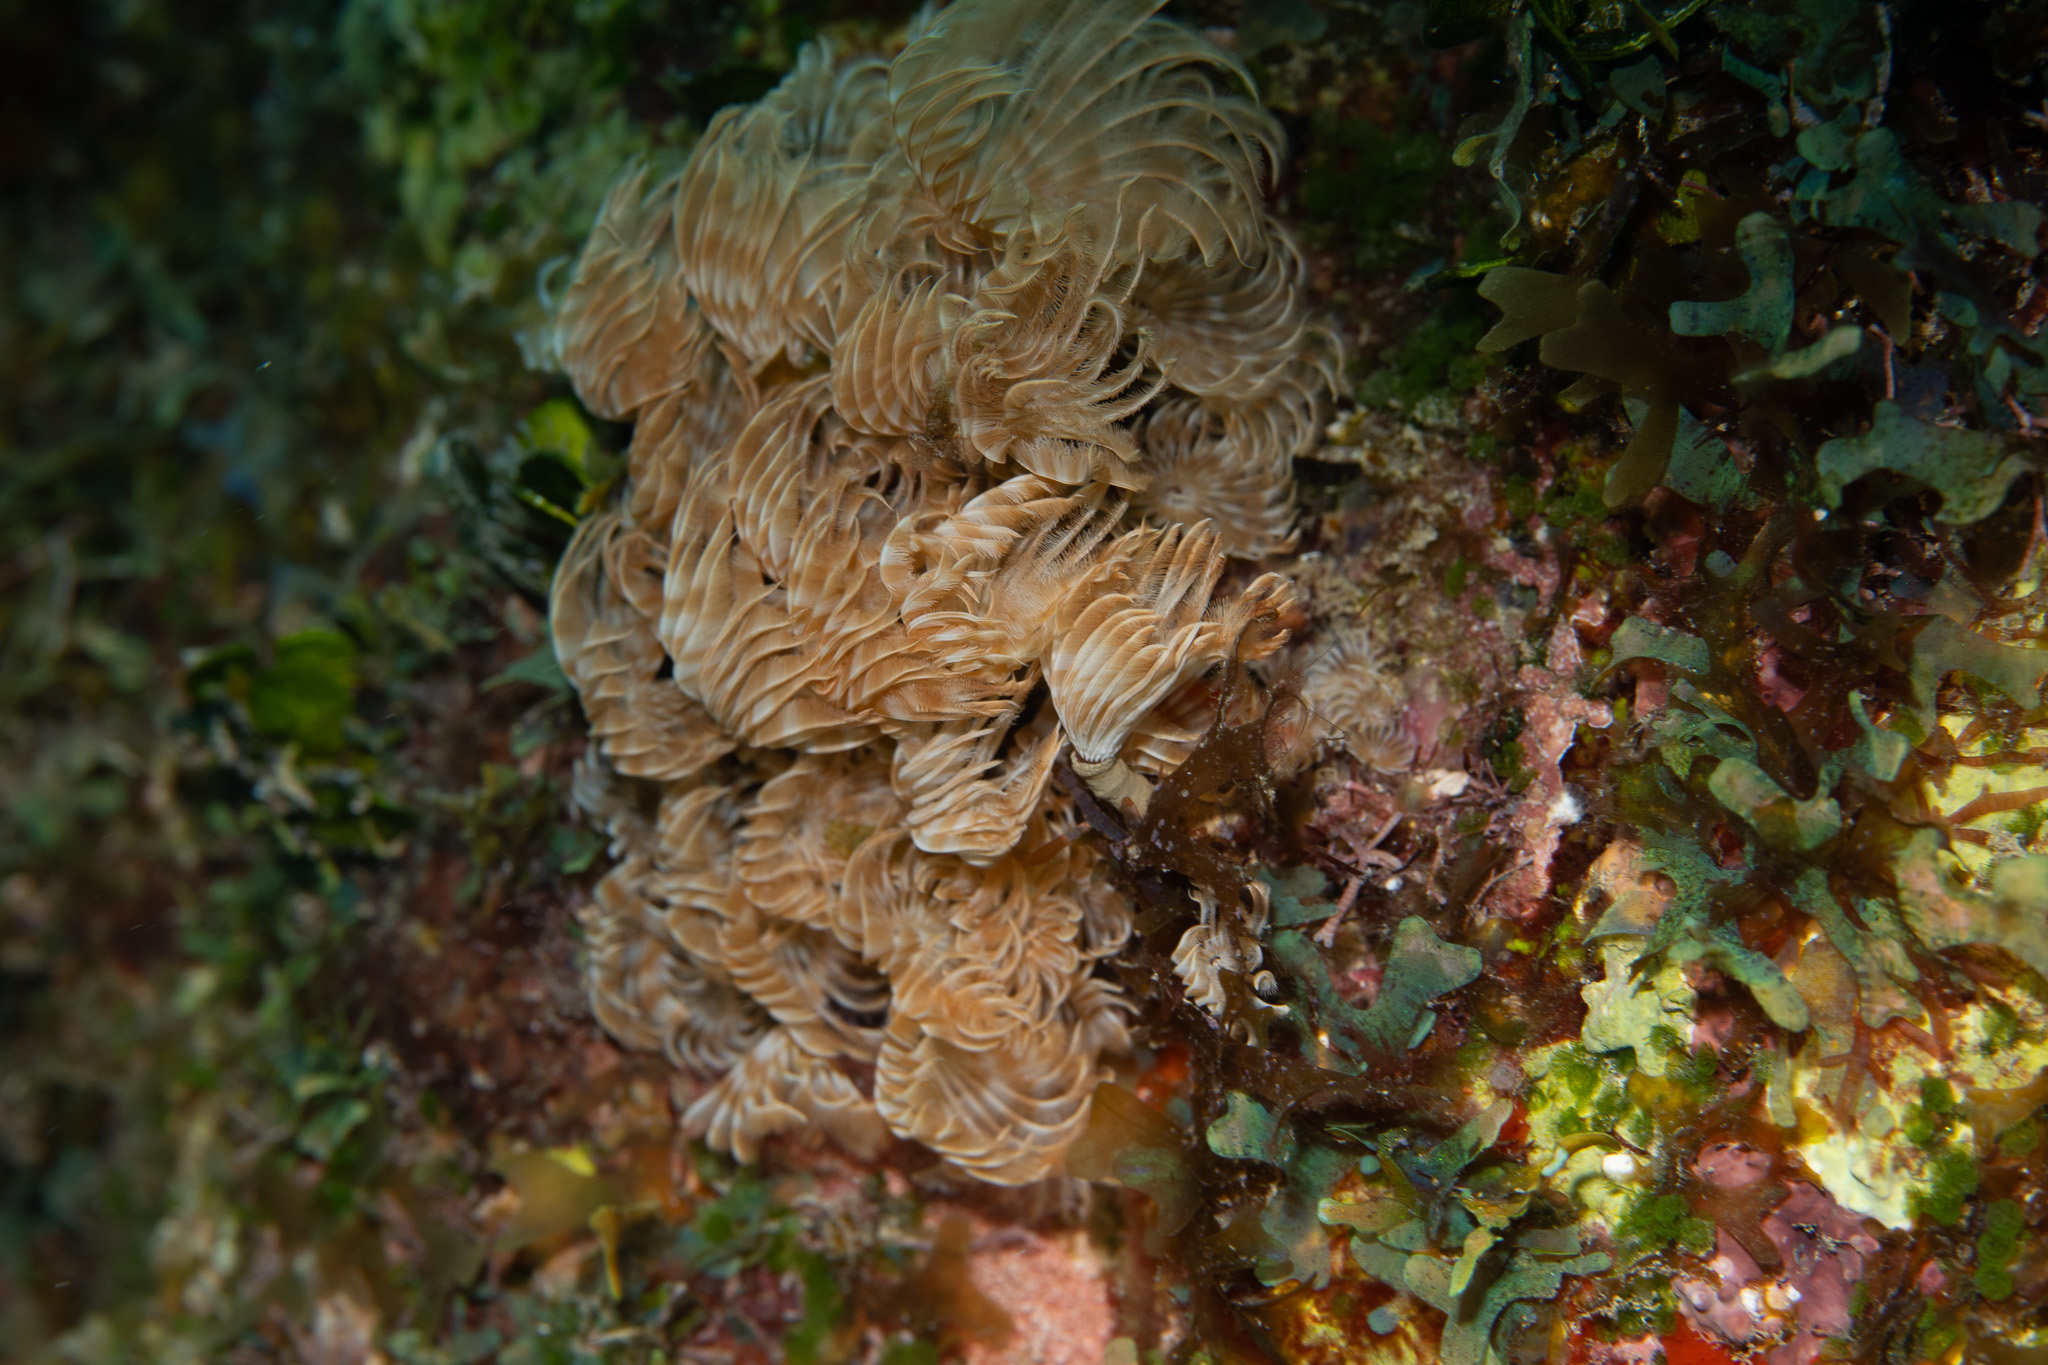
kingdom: Animalia
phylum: Annelida
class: Polychaeta
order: Sabellida
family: Sabellidae
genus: Bispira
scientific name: Bispira brunnea
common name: Social feather duster
